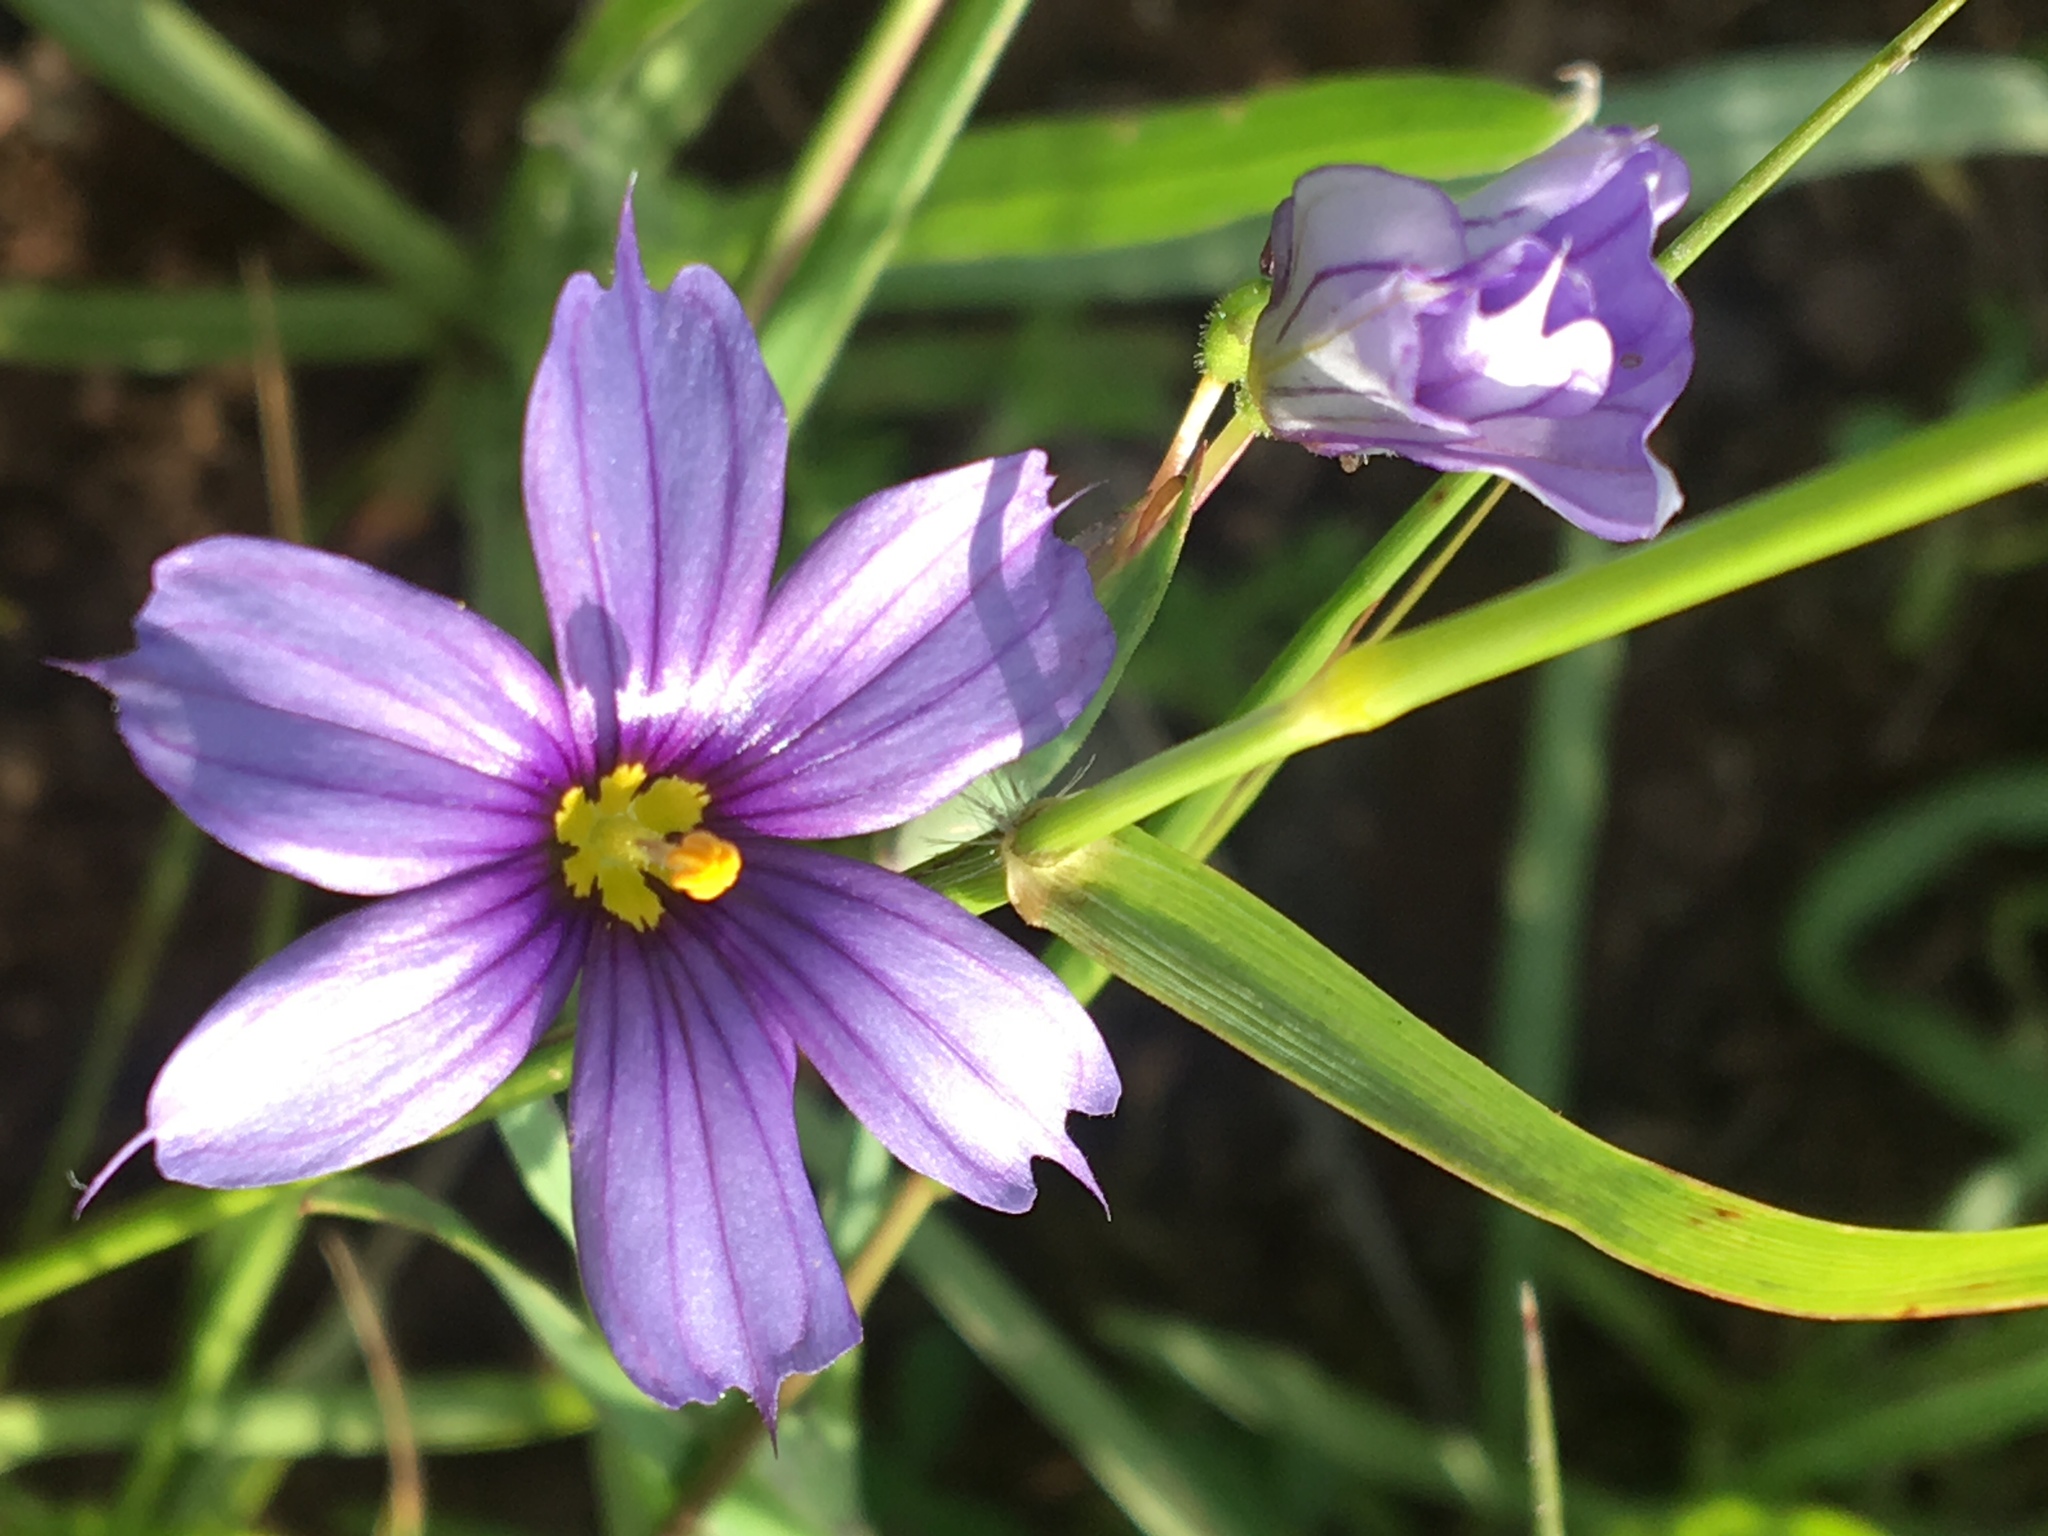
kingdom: Plantae
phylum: Tracheophyta
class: Liliopsida
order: Asparagales
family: Iridaceae
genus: Sisyrinchium
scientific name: Sisyrinchium bellum
